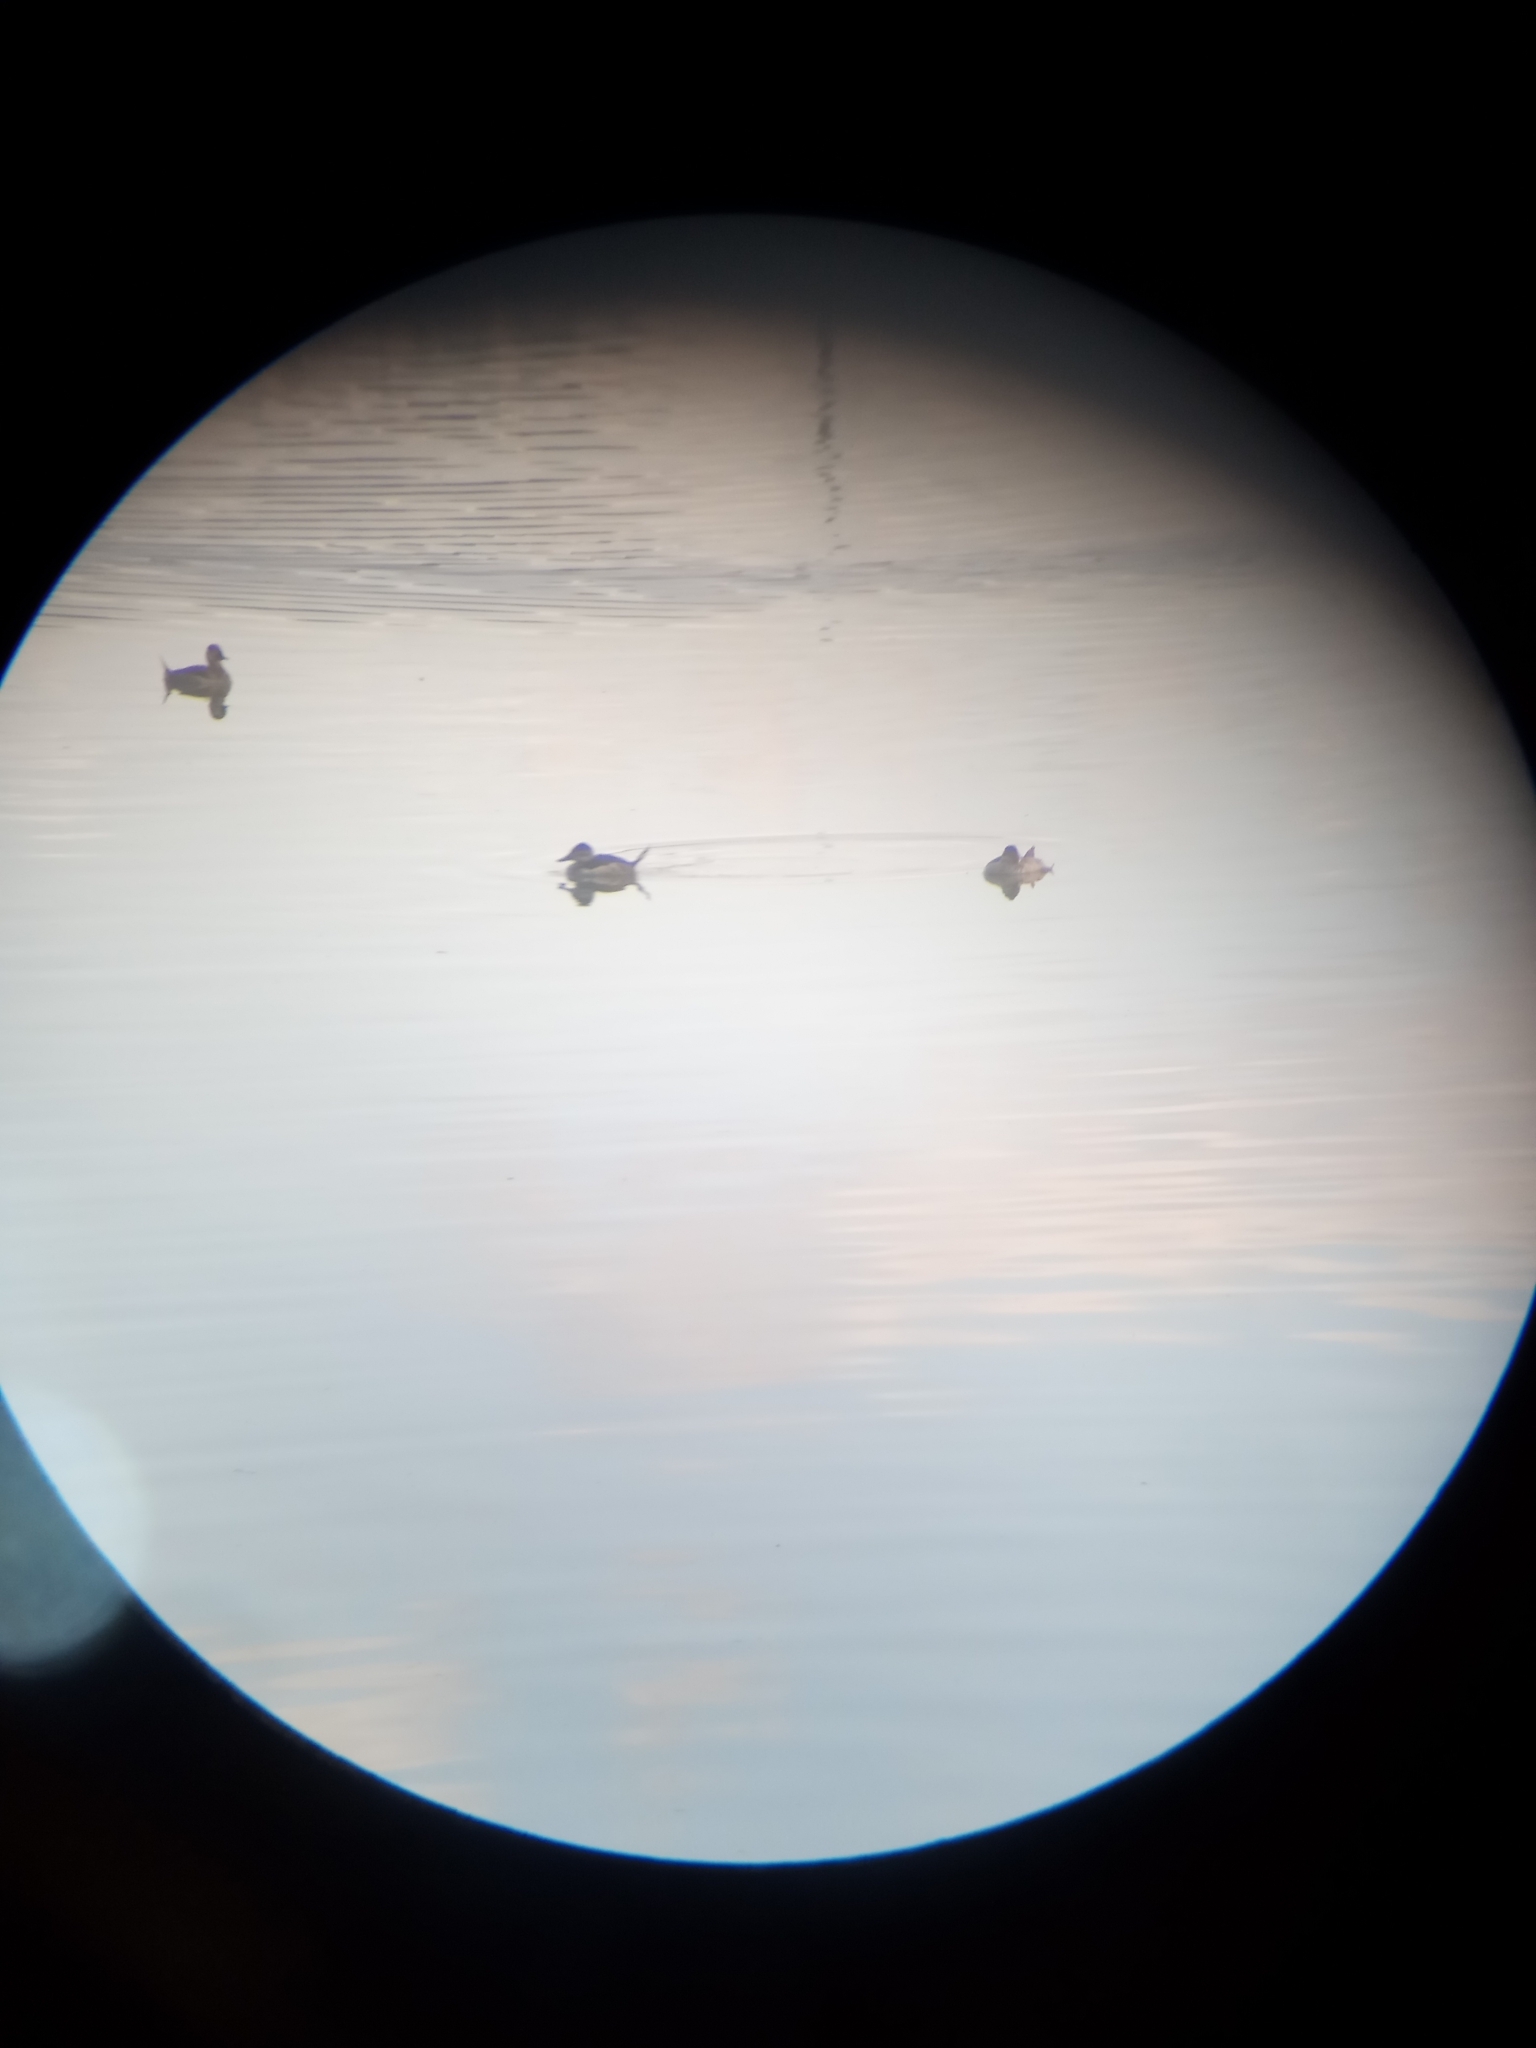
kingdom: Animalia
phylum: Chordata
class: Aves
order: Anseriformes
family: Anatidae
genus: Oxyura
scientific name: Oxyura jamaicensis
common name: Ruddy duck
